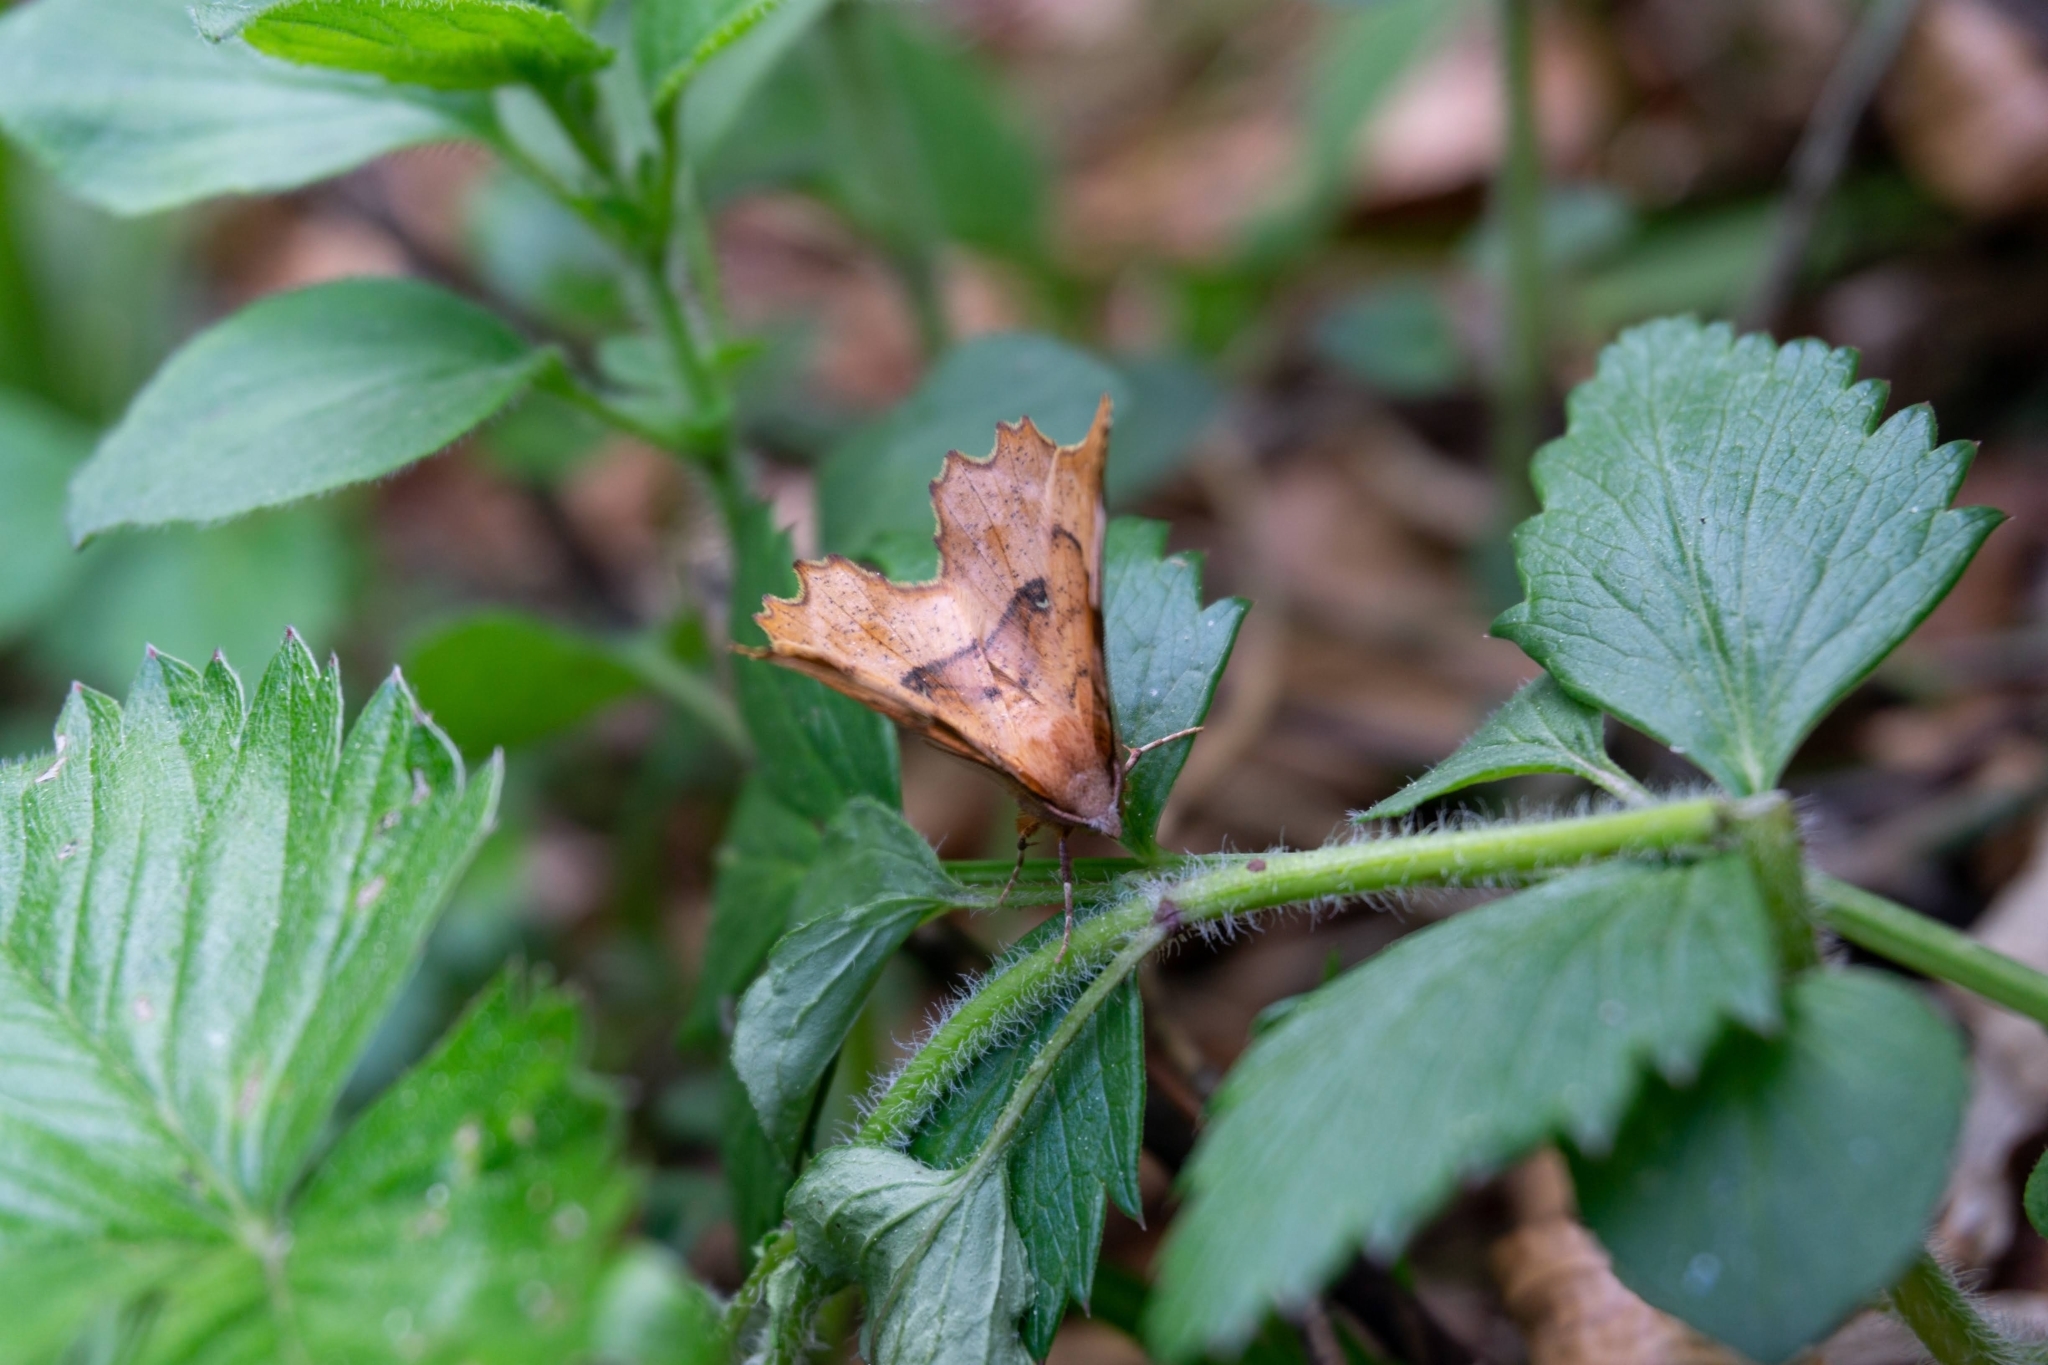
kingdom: Animalia
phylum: Arthropoda
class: Insecta
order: Lepidoptera
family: Geometridae
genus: Selenia
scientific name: Selenia lunularia
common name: Lunar thorn
